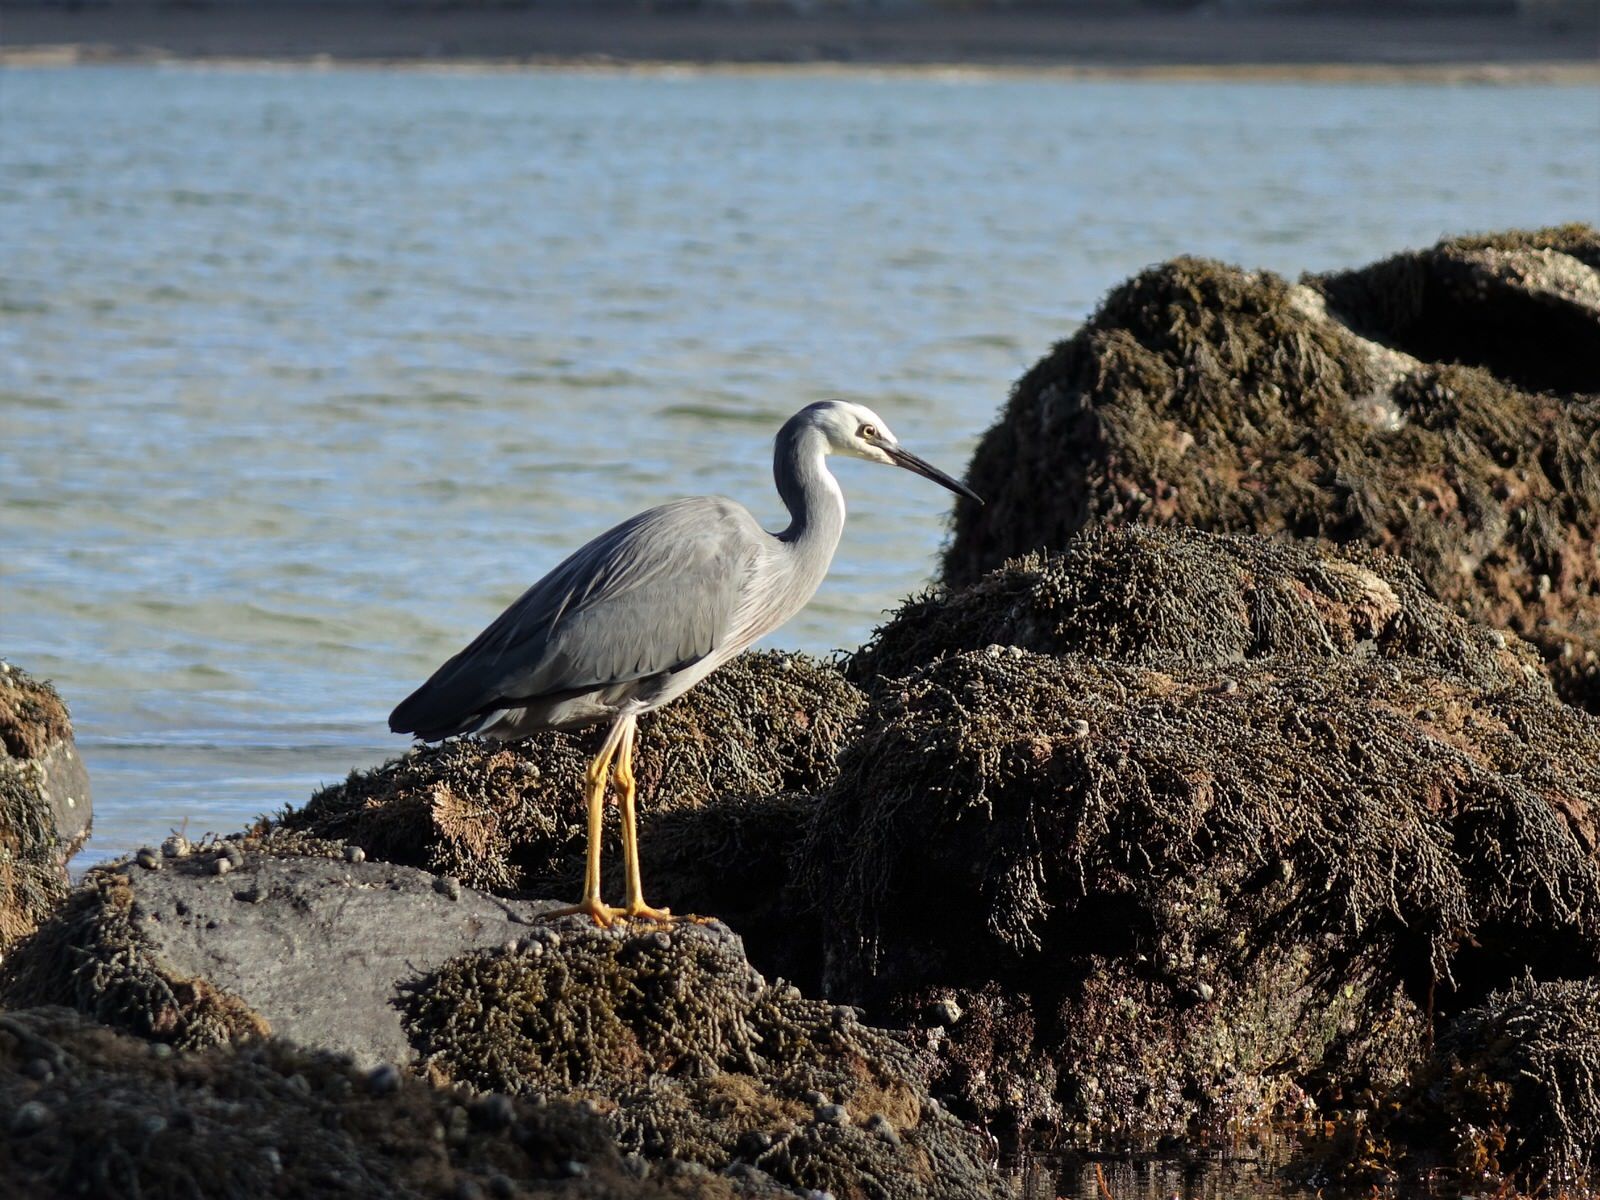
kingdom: Animalia
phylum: Chordata
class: Aves
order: Pelecaniformes
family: Ardeidae
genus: Egretta
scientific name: Egretta novaehollandiae
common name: White-faced heron
